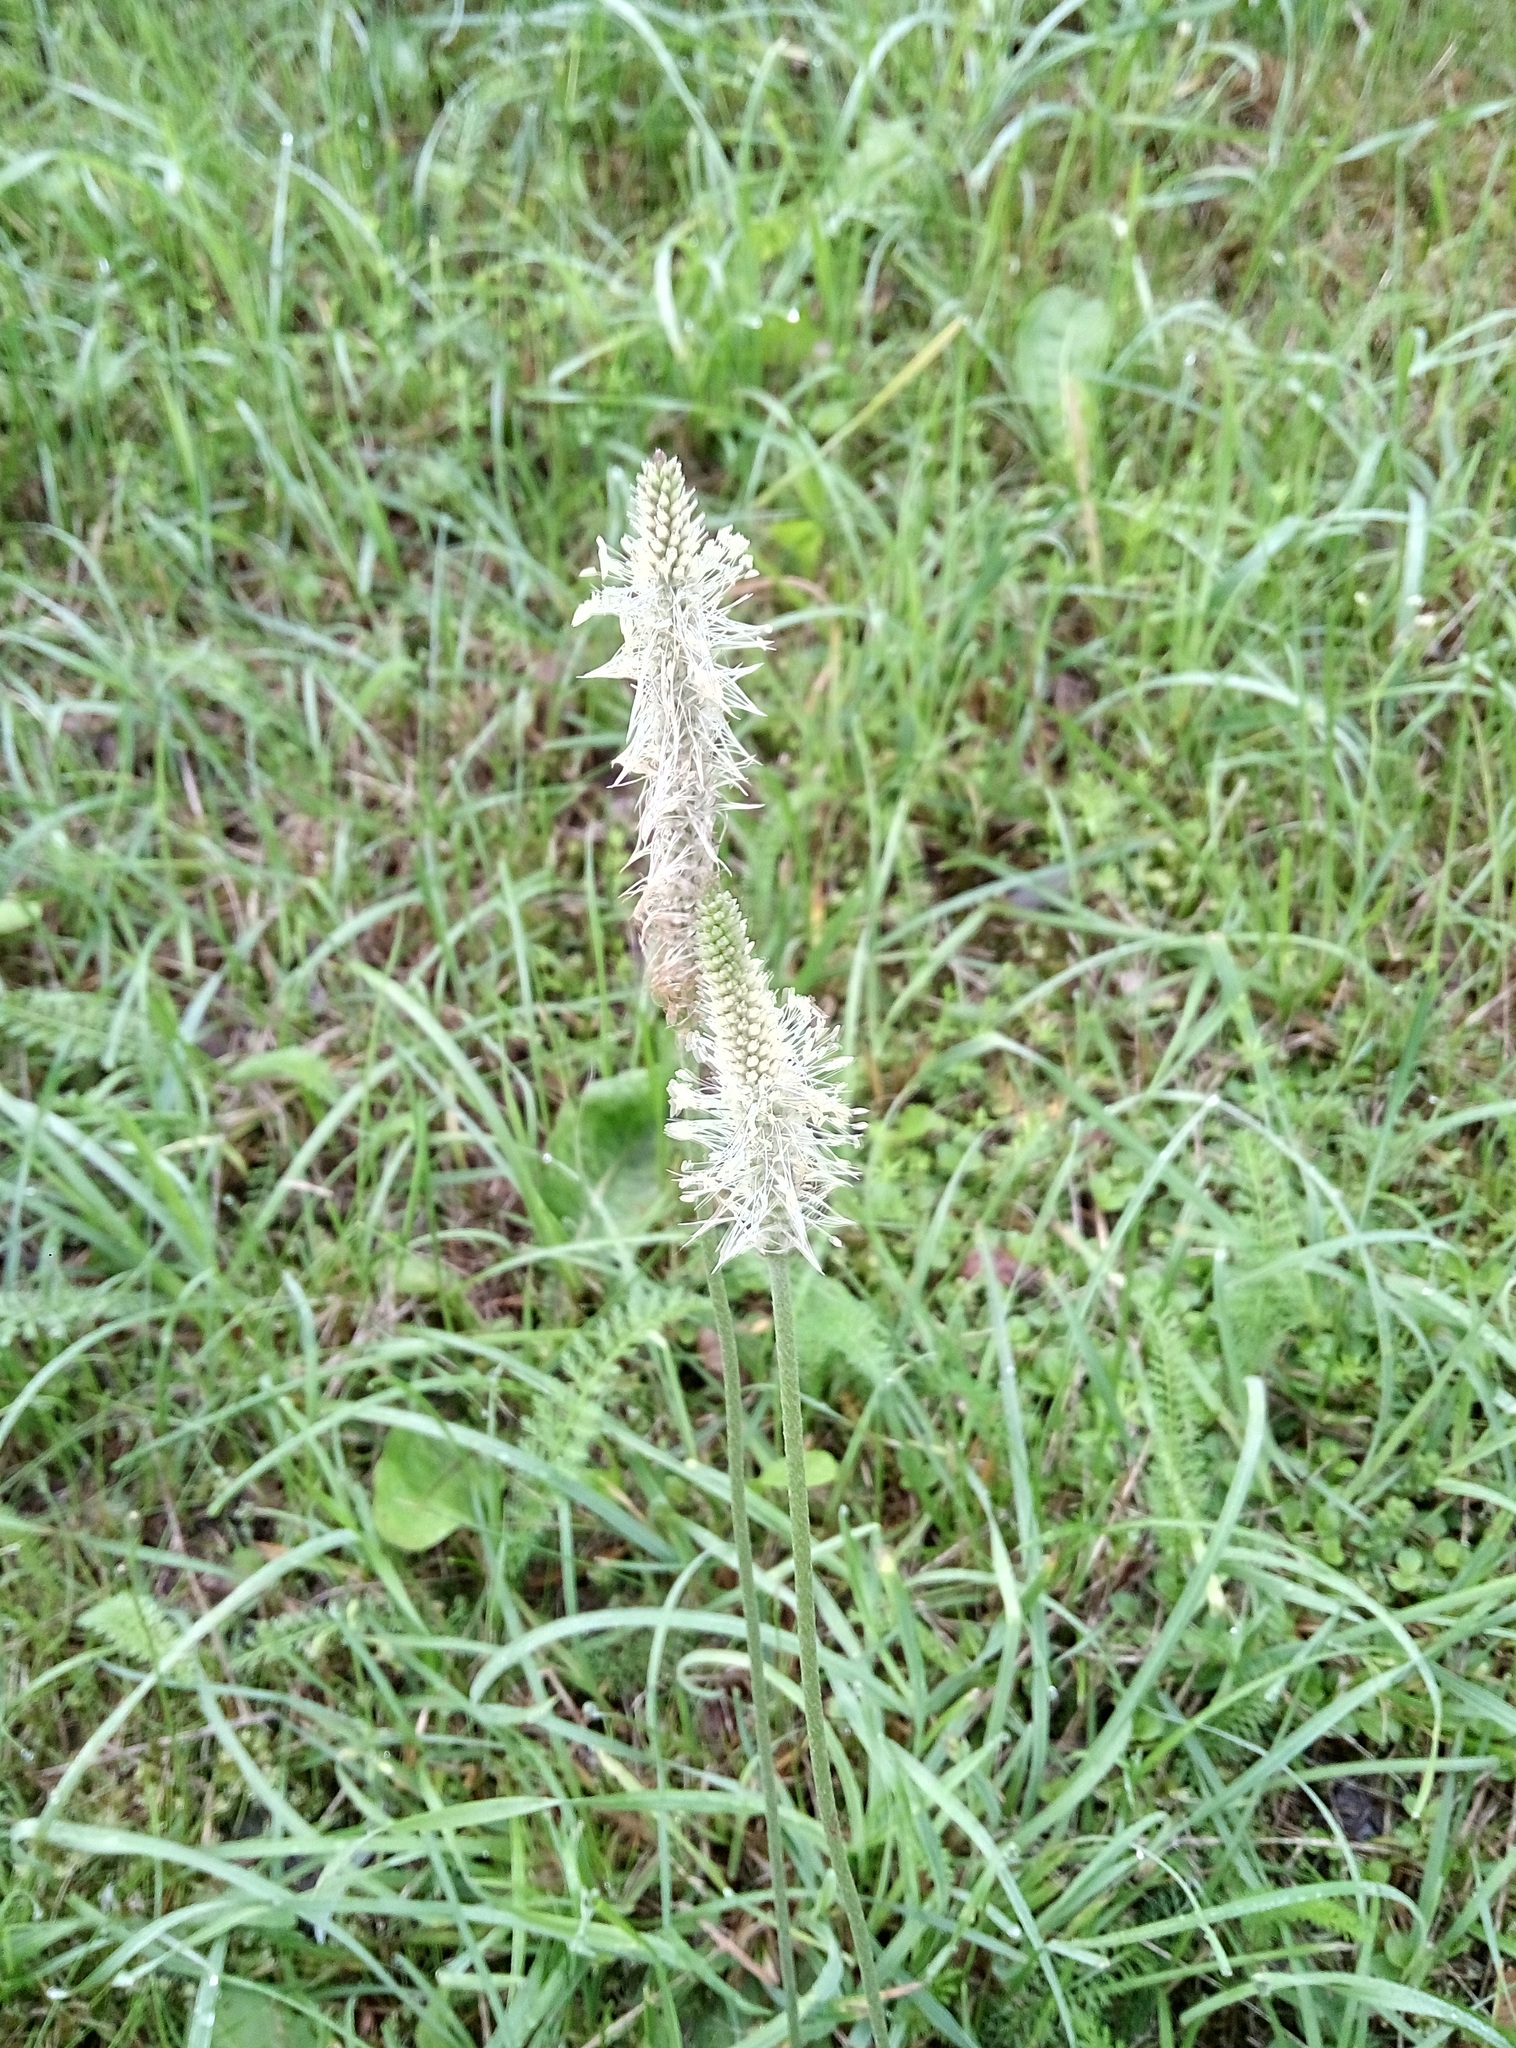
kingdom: Plantae
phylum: Tracheophyta
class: Magnoliopsida
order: Lamiales
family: Plantaginaceae
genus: Plantago
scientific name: Plantago media
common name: Hoary plantain
